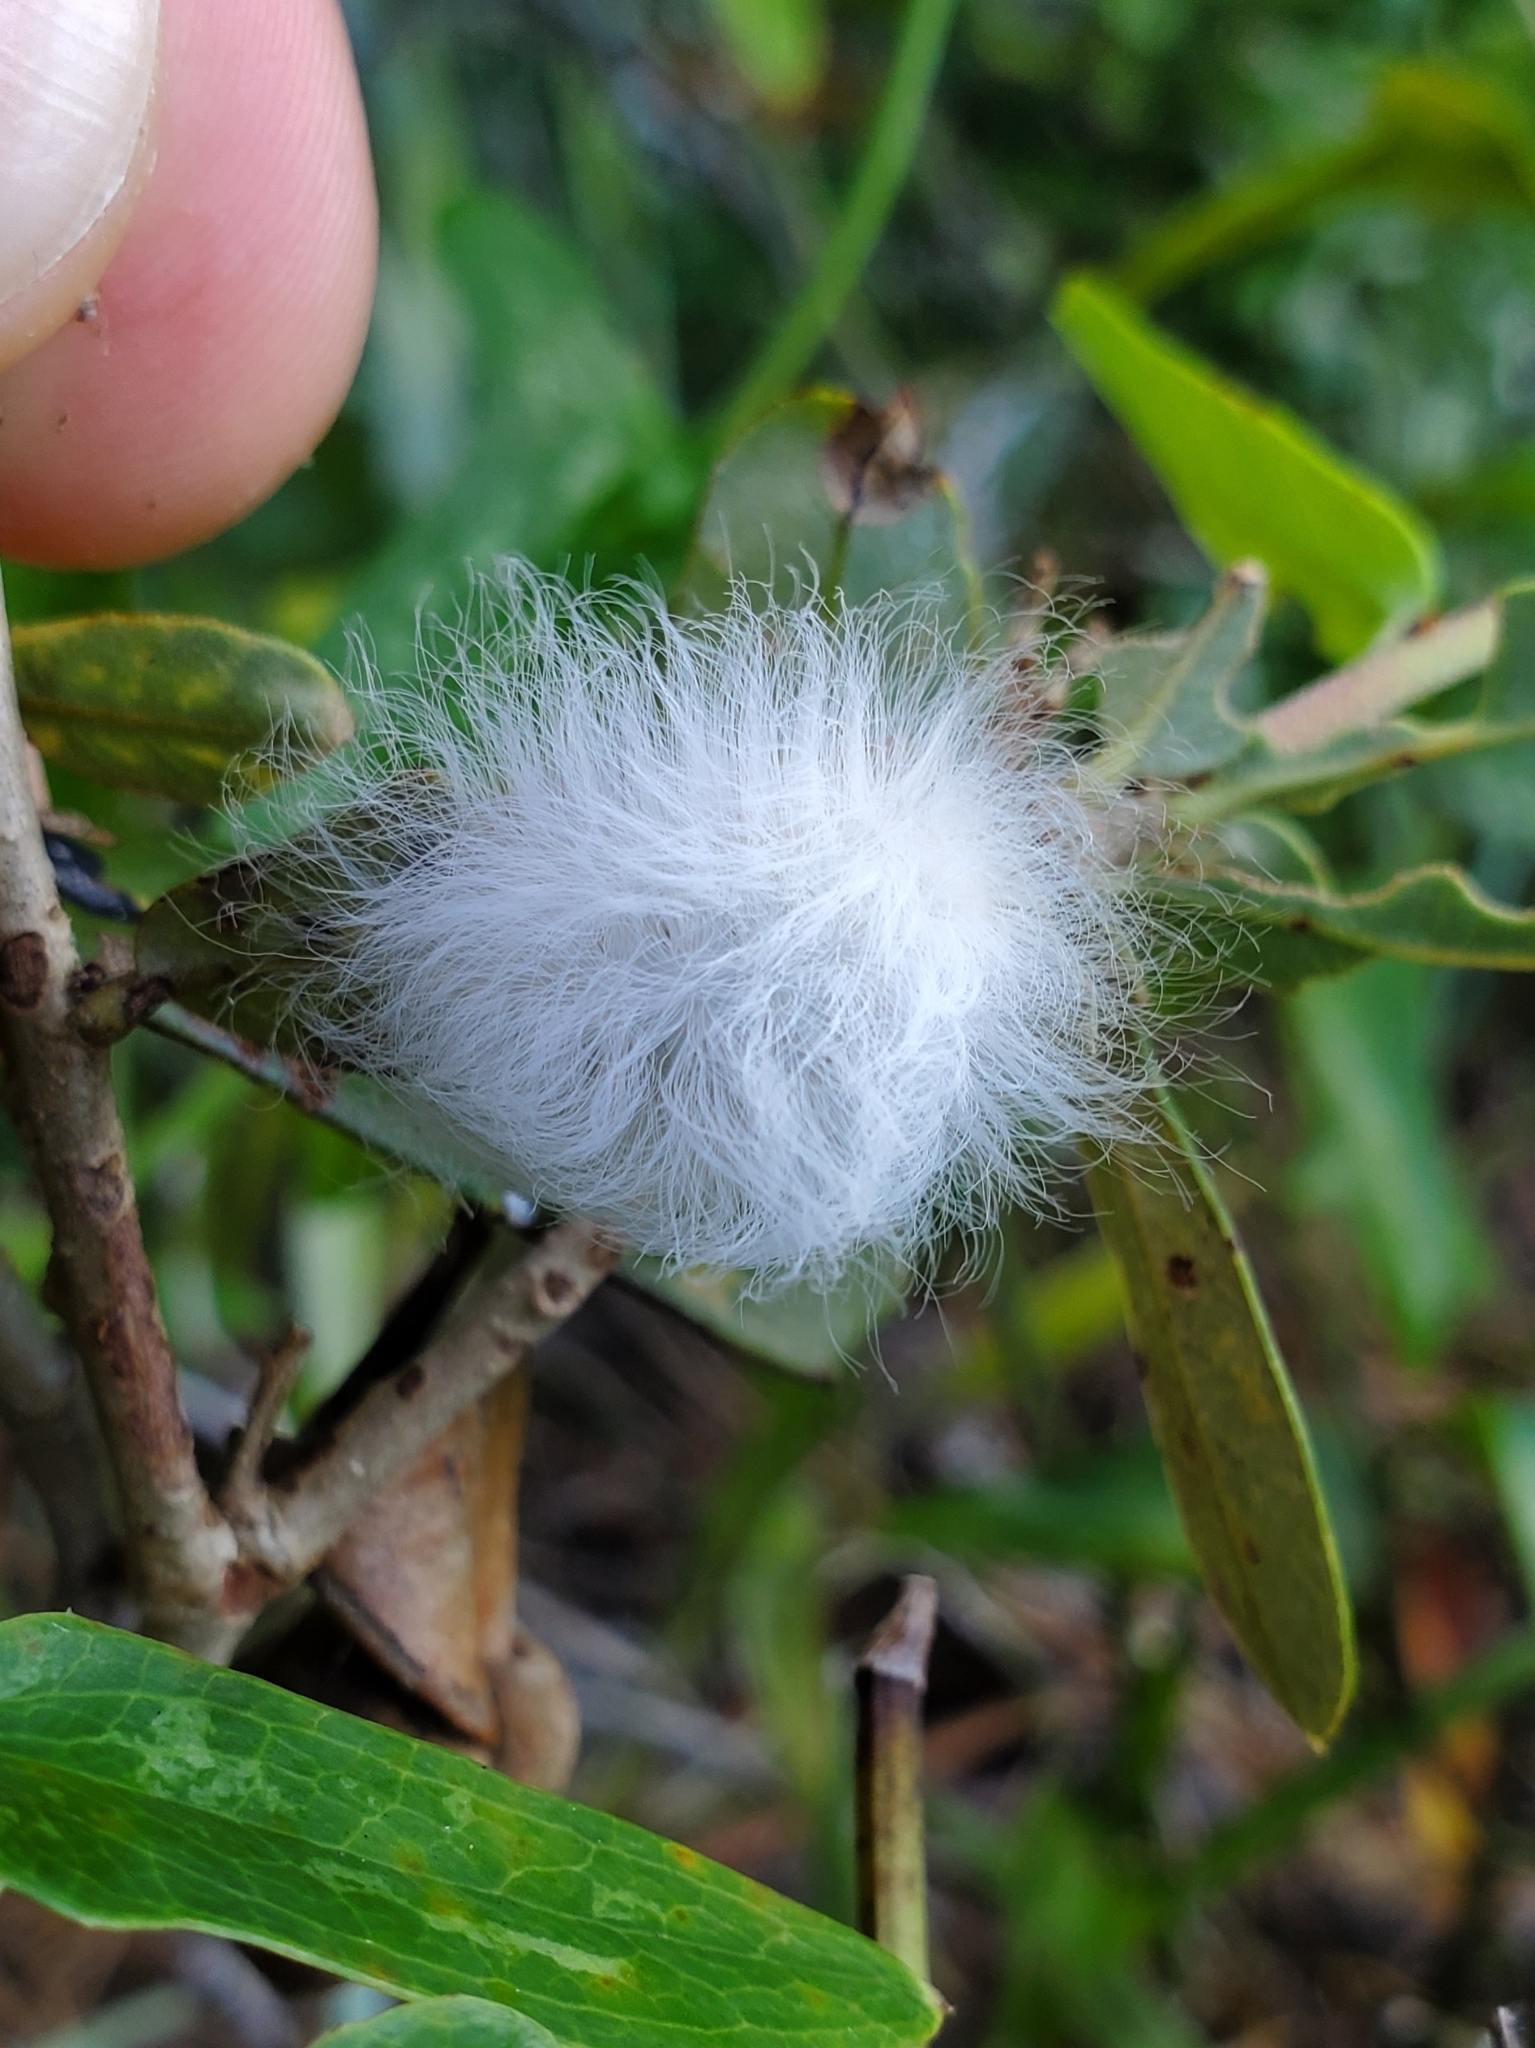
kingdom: Animalia
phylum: Arthropoda
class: Insecta
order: Lepidoptera
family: Megalopygidae
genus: Megalopyge
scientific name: Megalopyge crispata
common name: Black-waved flannel moth
